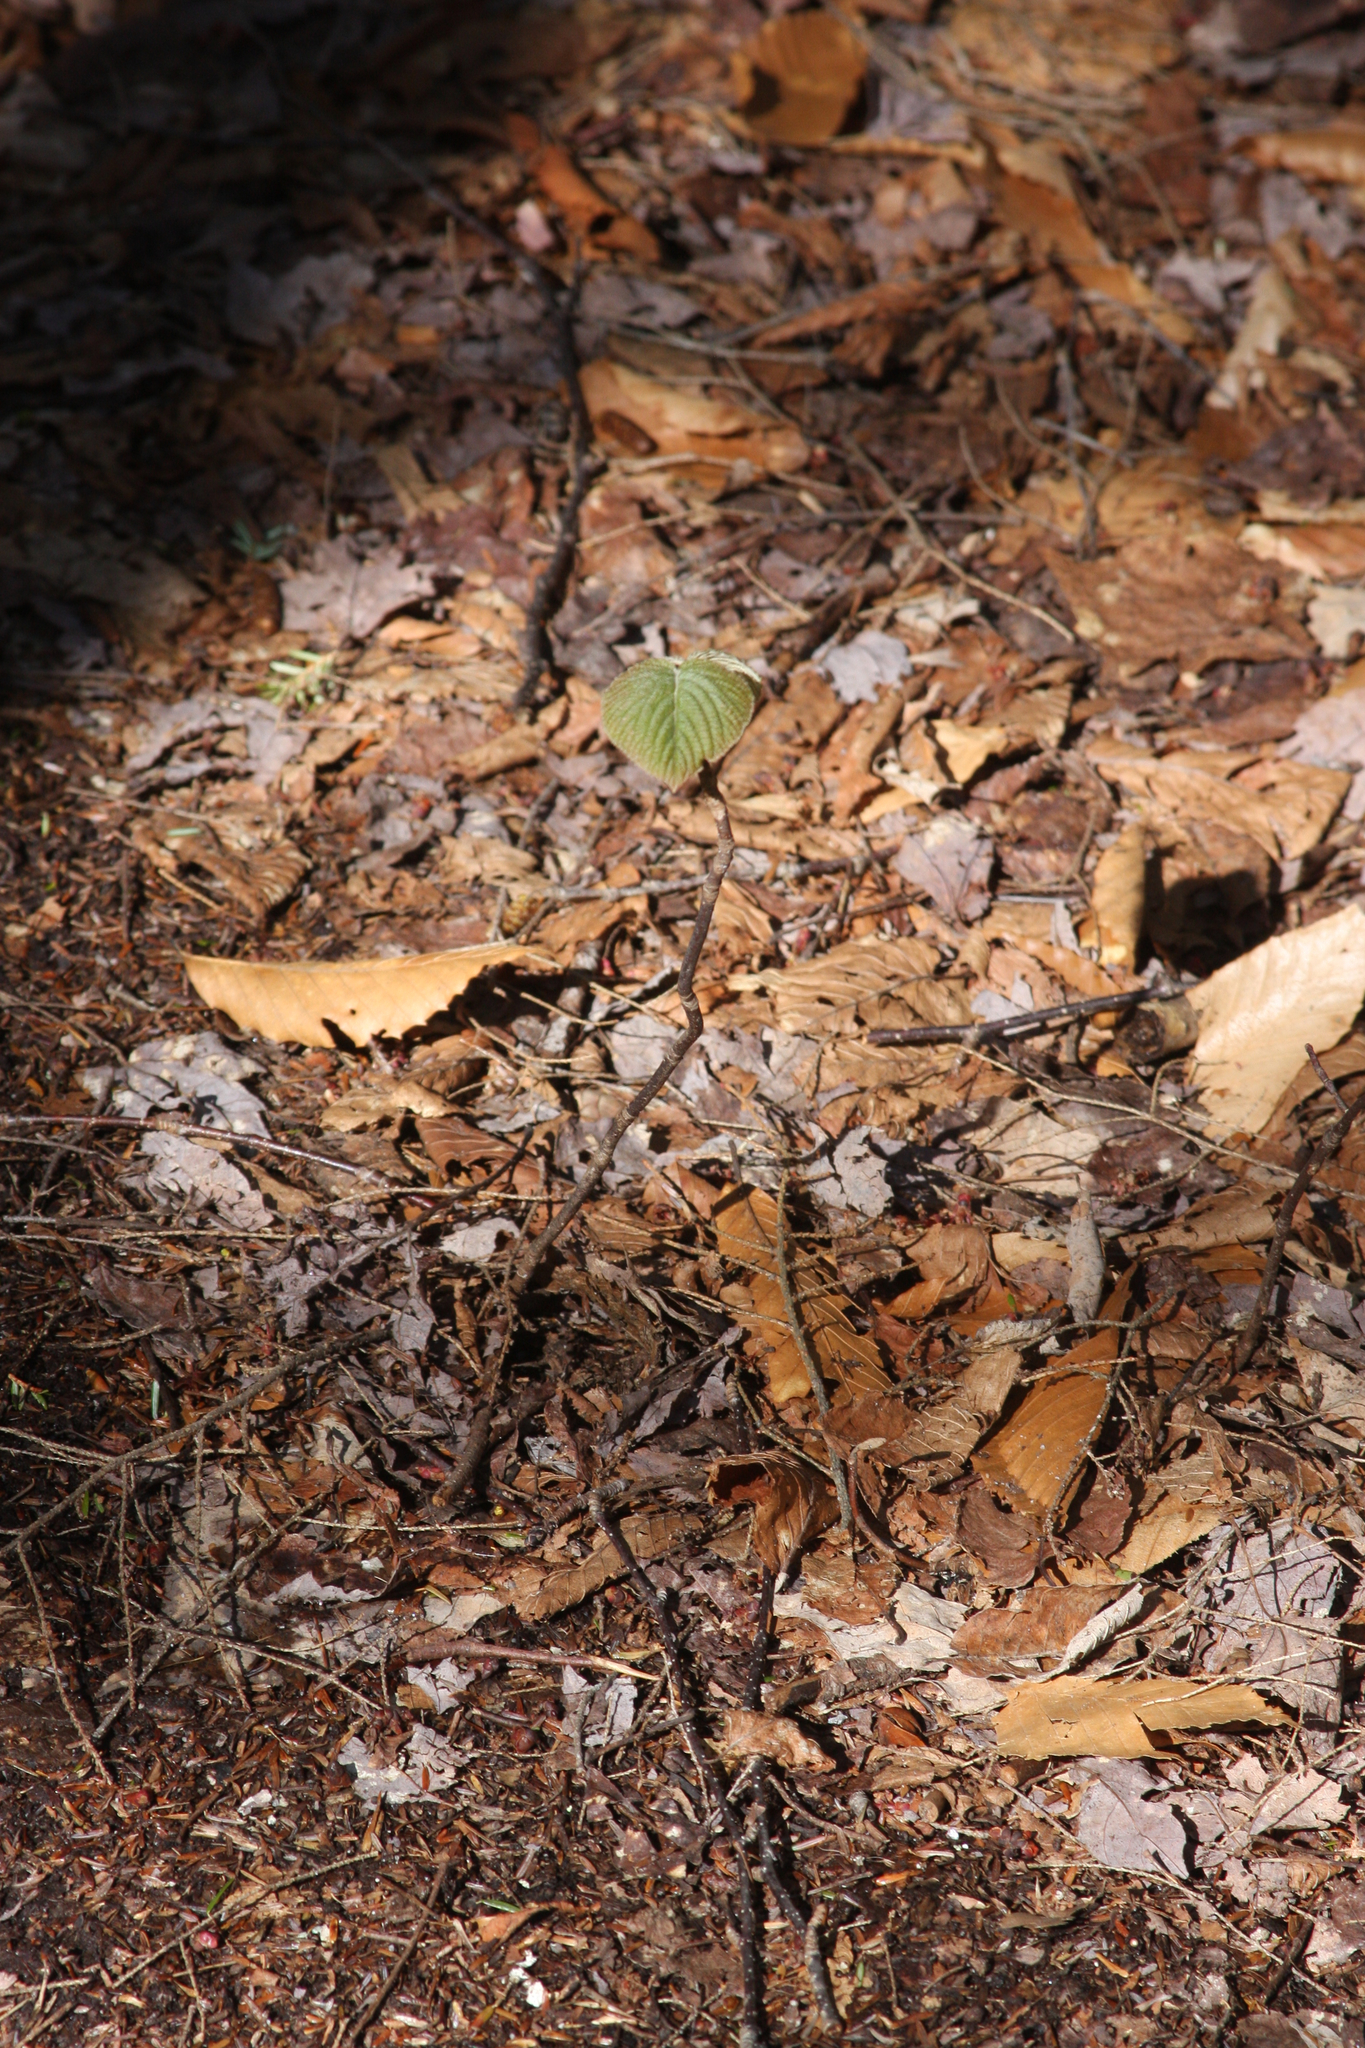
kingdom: Plantae
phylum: Tracheophyta
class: Magnoliopsida
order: Dipsacales
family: Viburnaceae
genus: Viburnum
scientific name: Viburnum lantanoides
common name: Hobblebush
